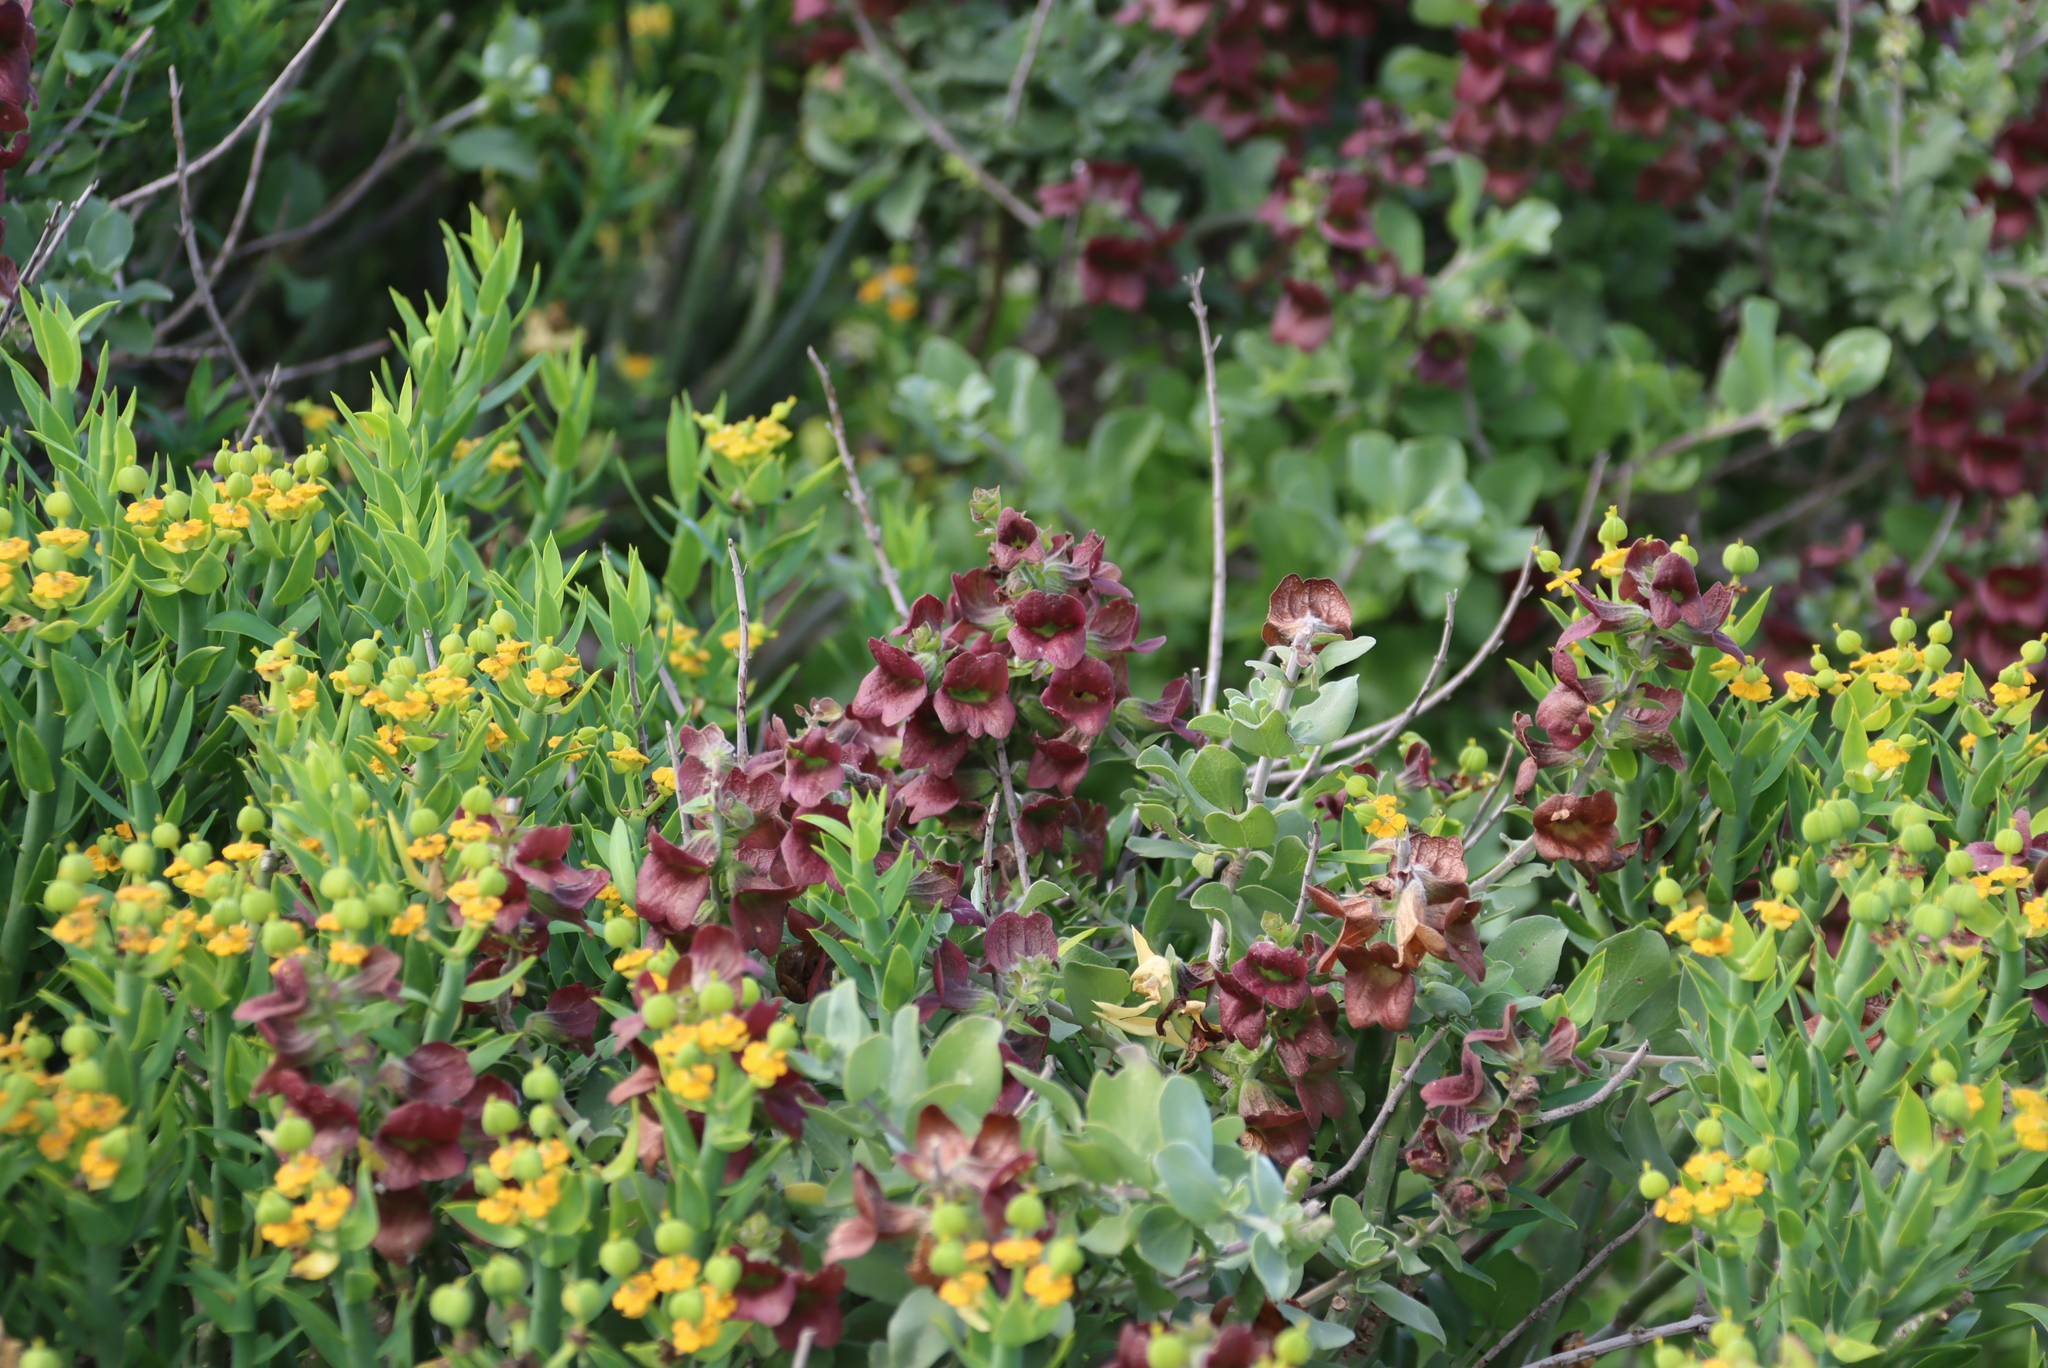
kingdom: Plantae
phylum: Tracheophyta
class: Magnoliopsida
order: Lamiales
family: Lamiaceae
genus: Salvia
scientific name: Salvia aurea
